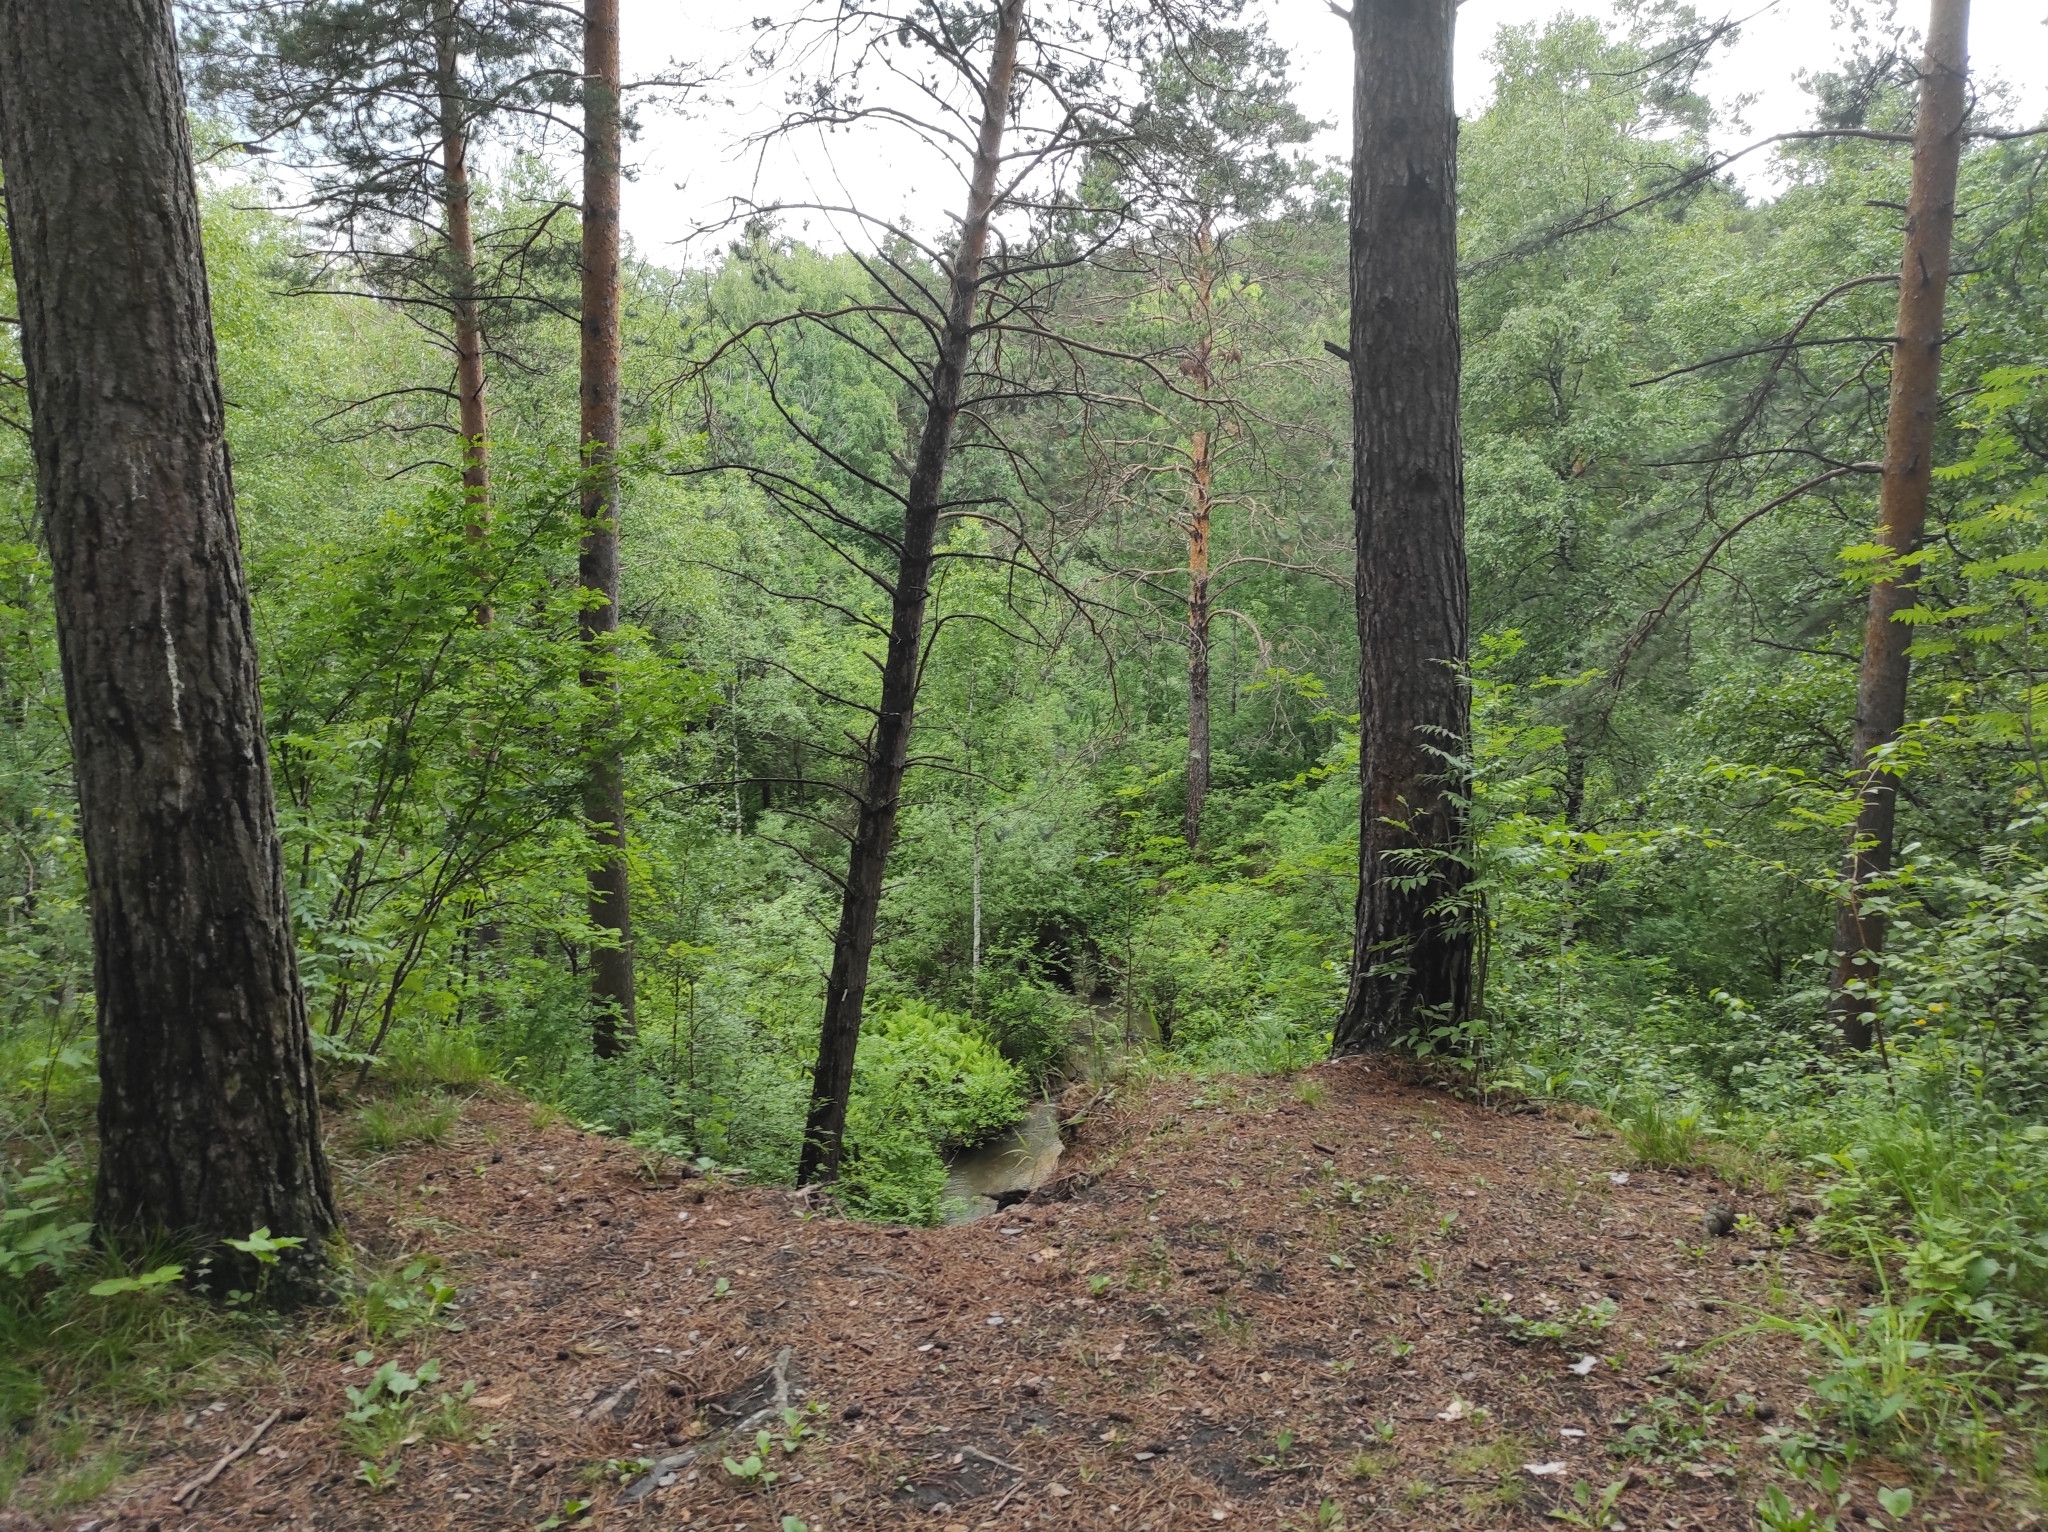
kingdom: Plantae
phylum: Tracheophyta
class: Pinopsida
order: Pinales
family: Pinaceae
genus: Pinus
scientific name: Pinus sylvestris
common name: Scots pine
